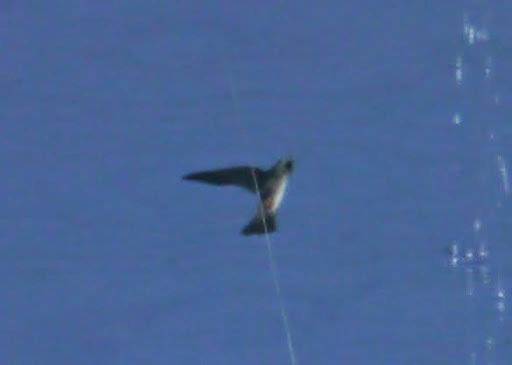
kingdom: Animalia
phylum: Chordata
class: Aves
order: Passeriformes
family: Hirundinidae
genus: Petrochelidon
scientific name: Petrochelidon pyrrhonota
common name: American cliff swallow
